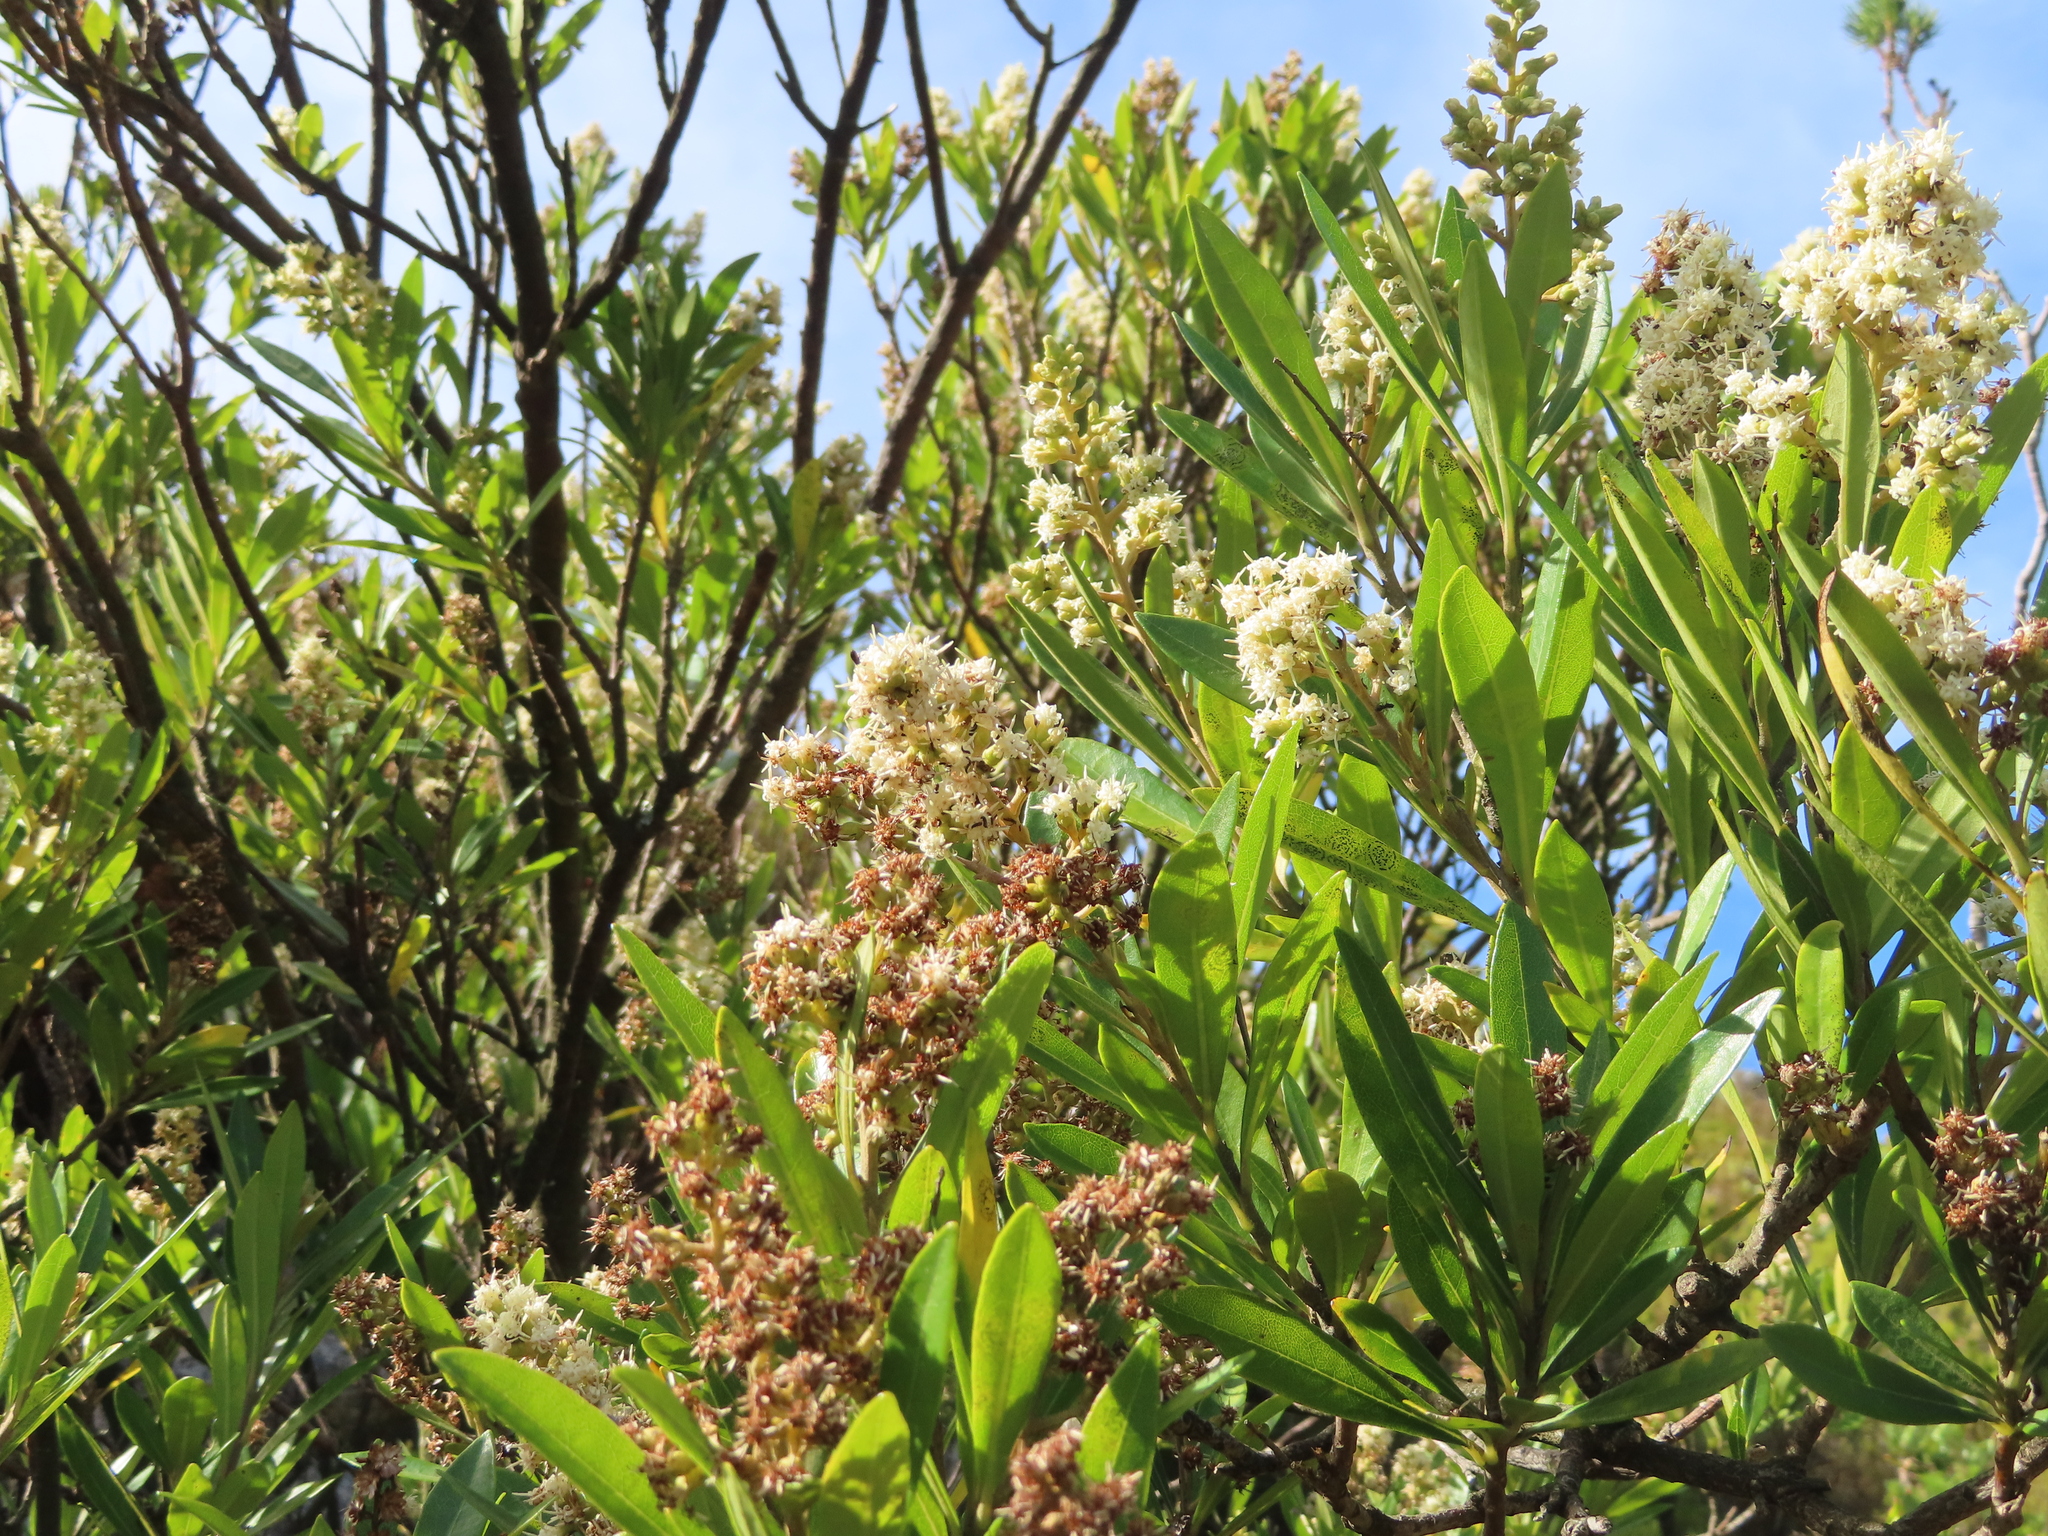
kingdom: Plantae
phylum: Tracheophyta
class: Magnoliopsida
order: Asterales
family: Asteraceae
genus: Brachylaena
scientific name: Brachylaena neriifolia
